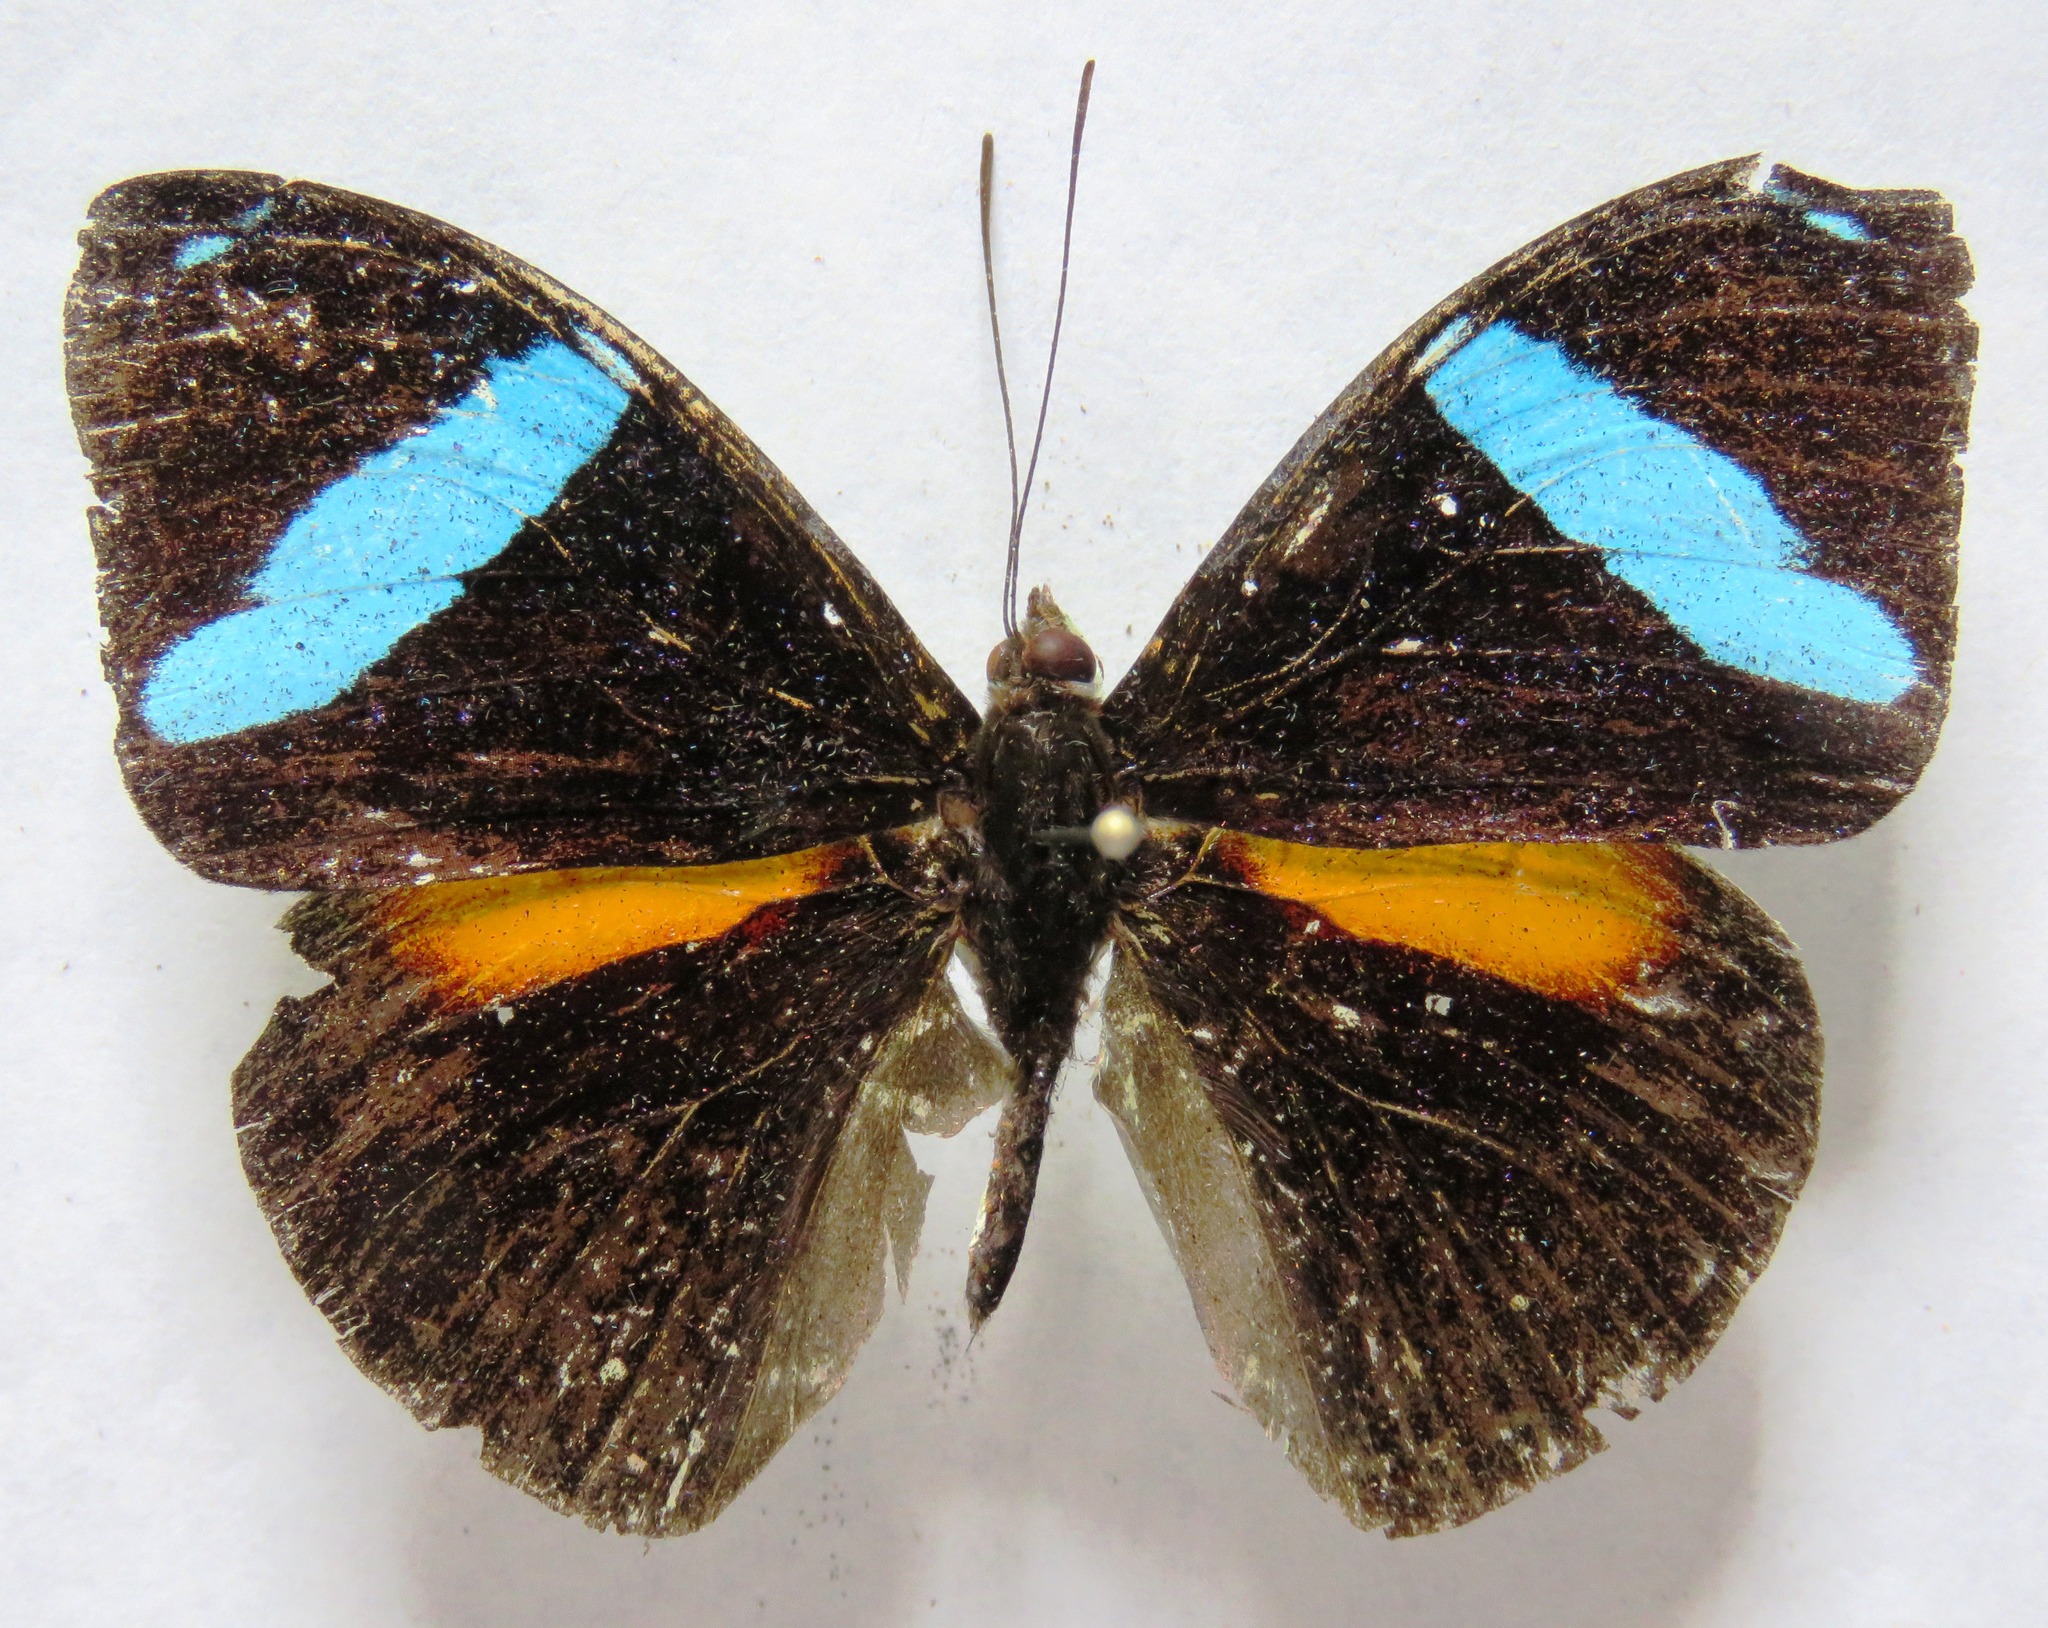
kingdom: Animalia
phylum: Arthropoda
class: Insecta
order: Lepidoptera
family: Nymphalidae
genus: Nessaea
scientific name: Nessaea aglaura
